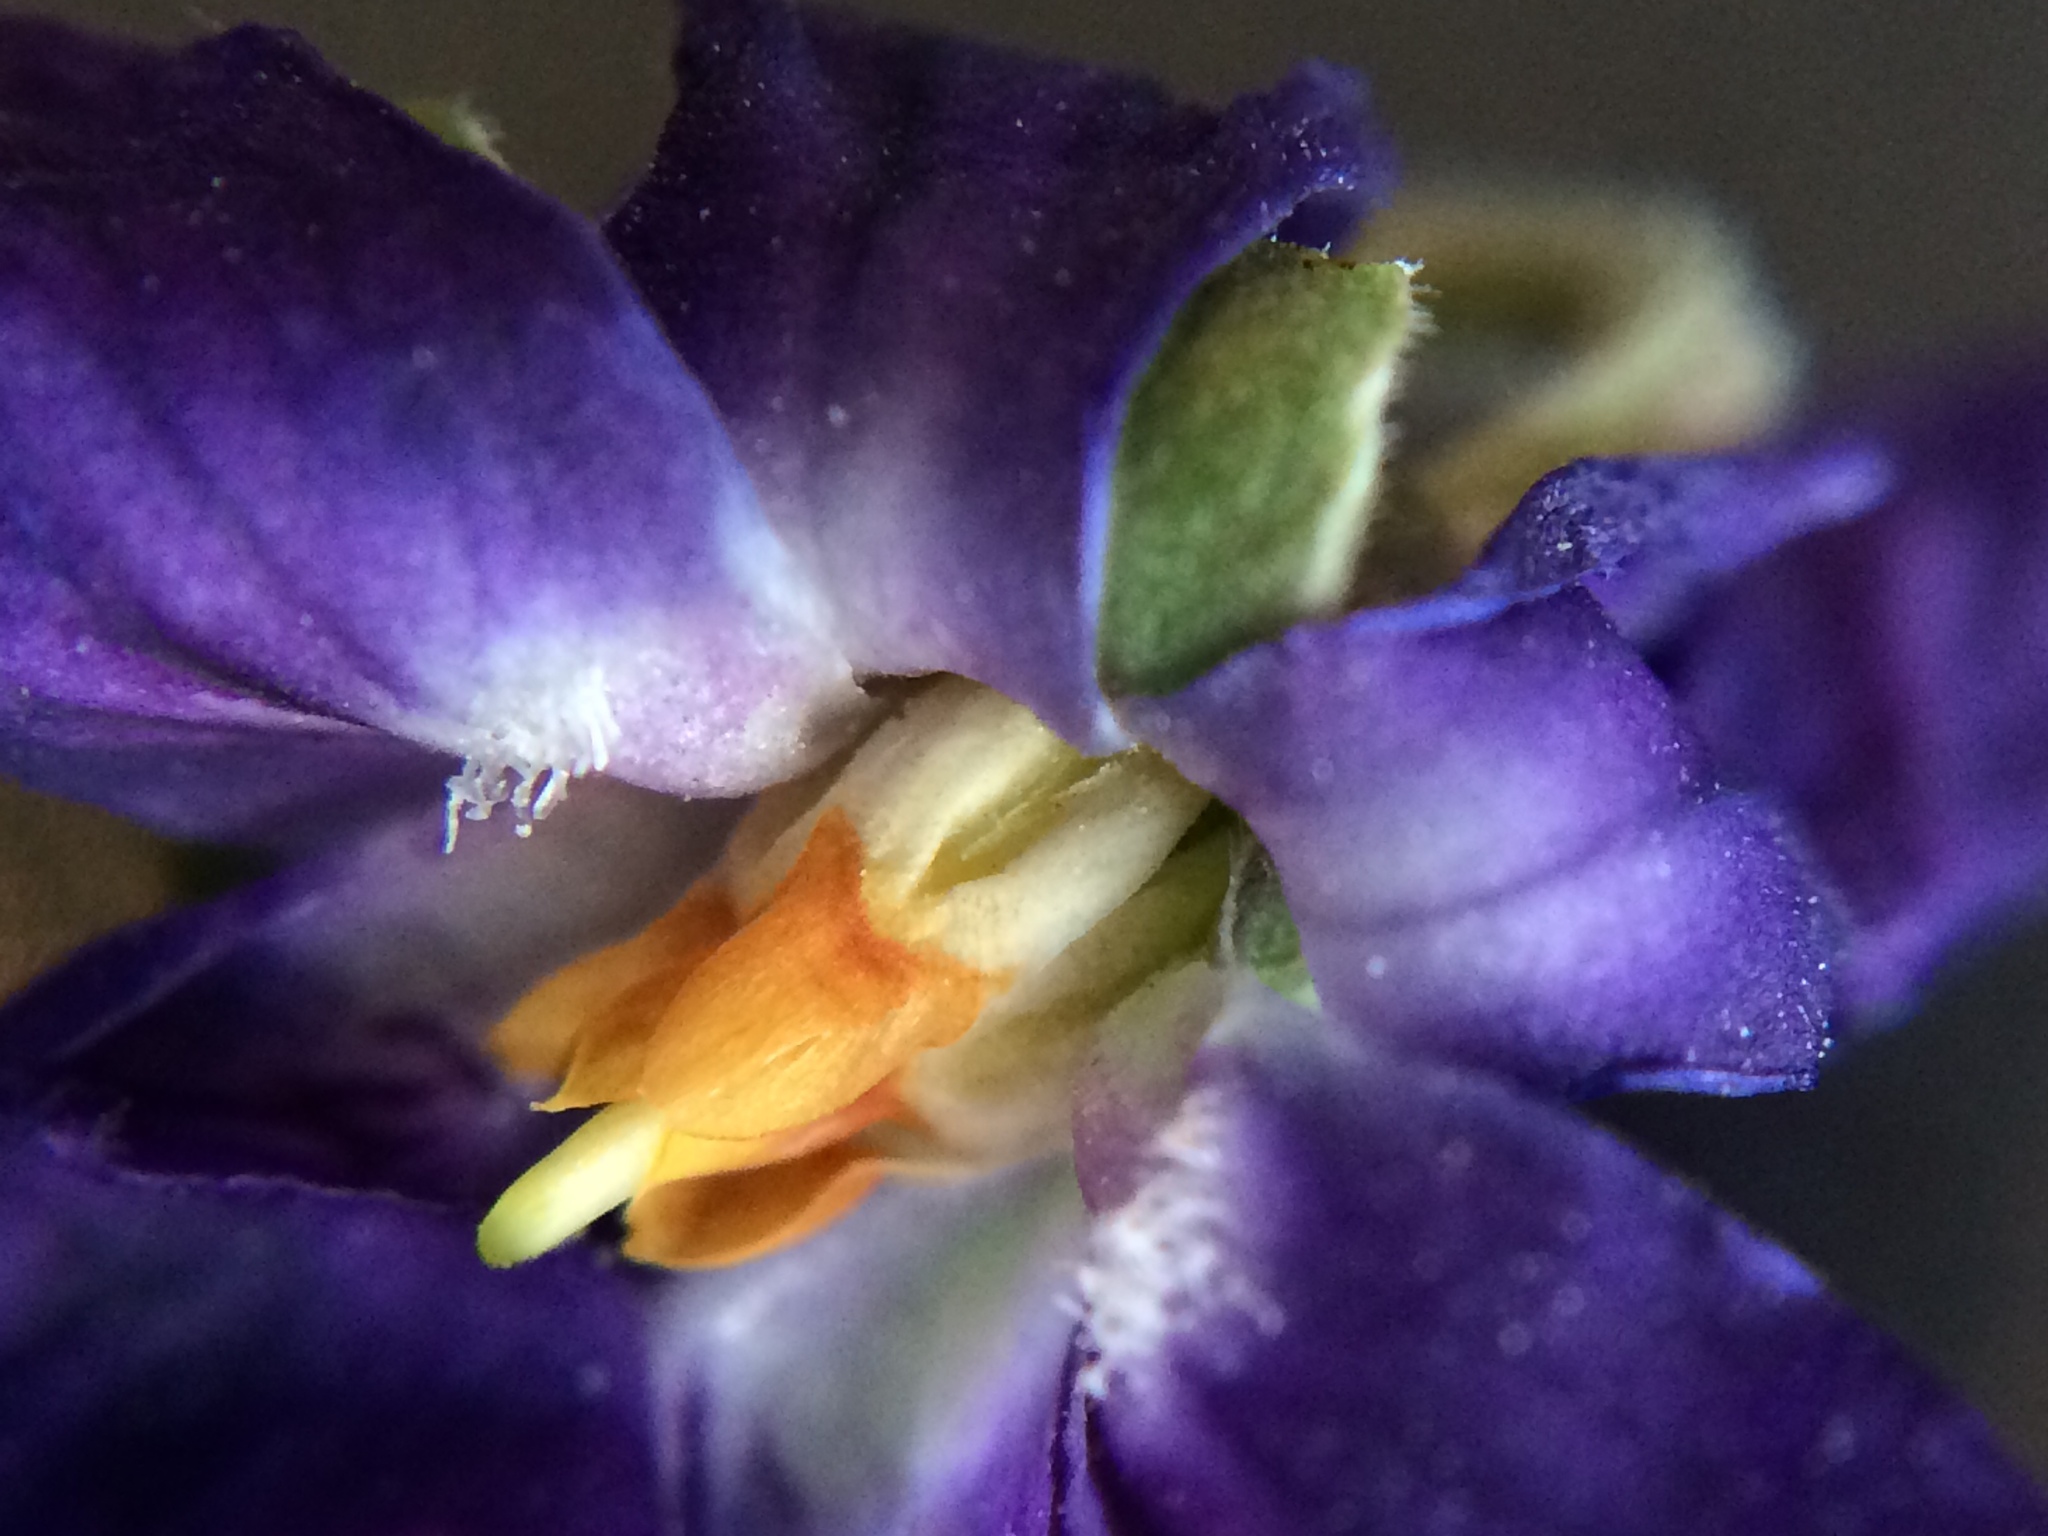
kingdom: Plantae
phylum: Tracheophyta
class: Magnoliopsida
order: Malpighiales
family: Violaceae
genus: Viola
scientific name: Viola odorata
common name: Sweet violet
